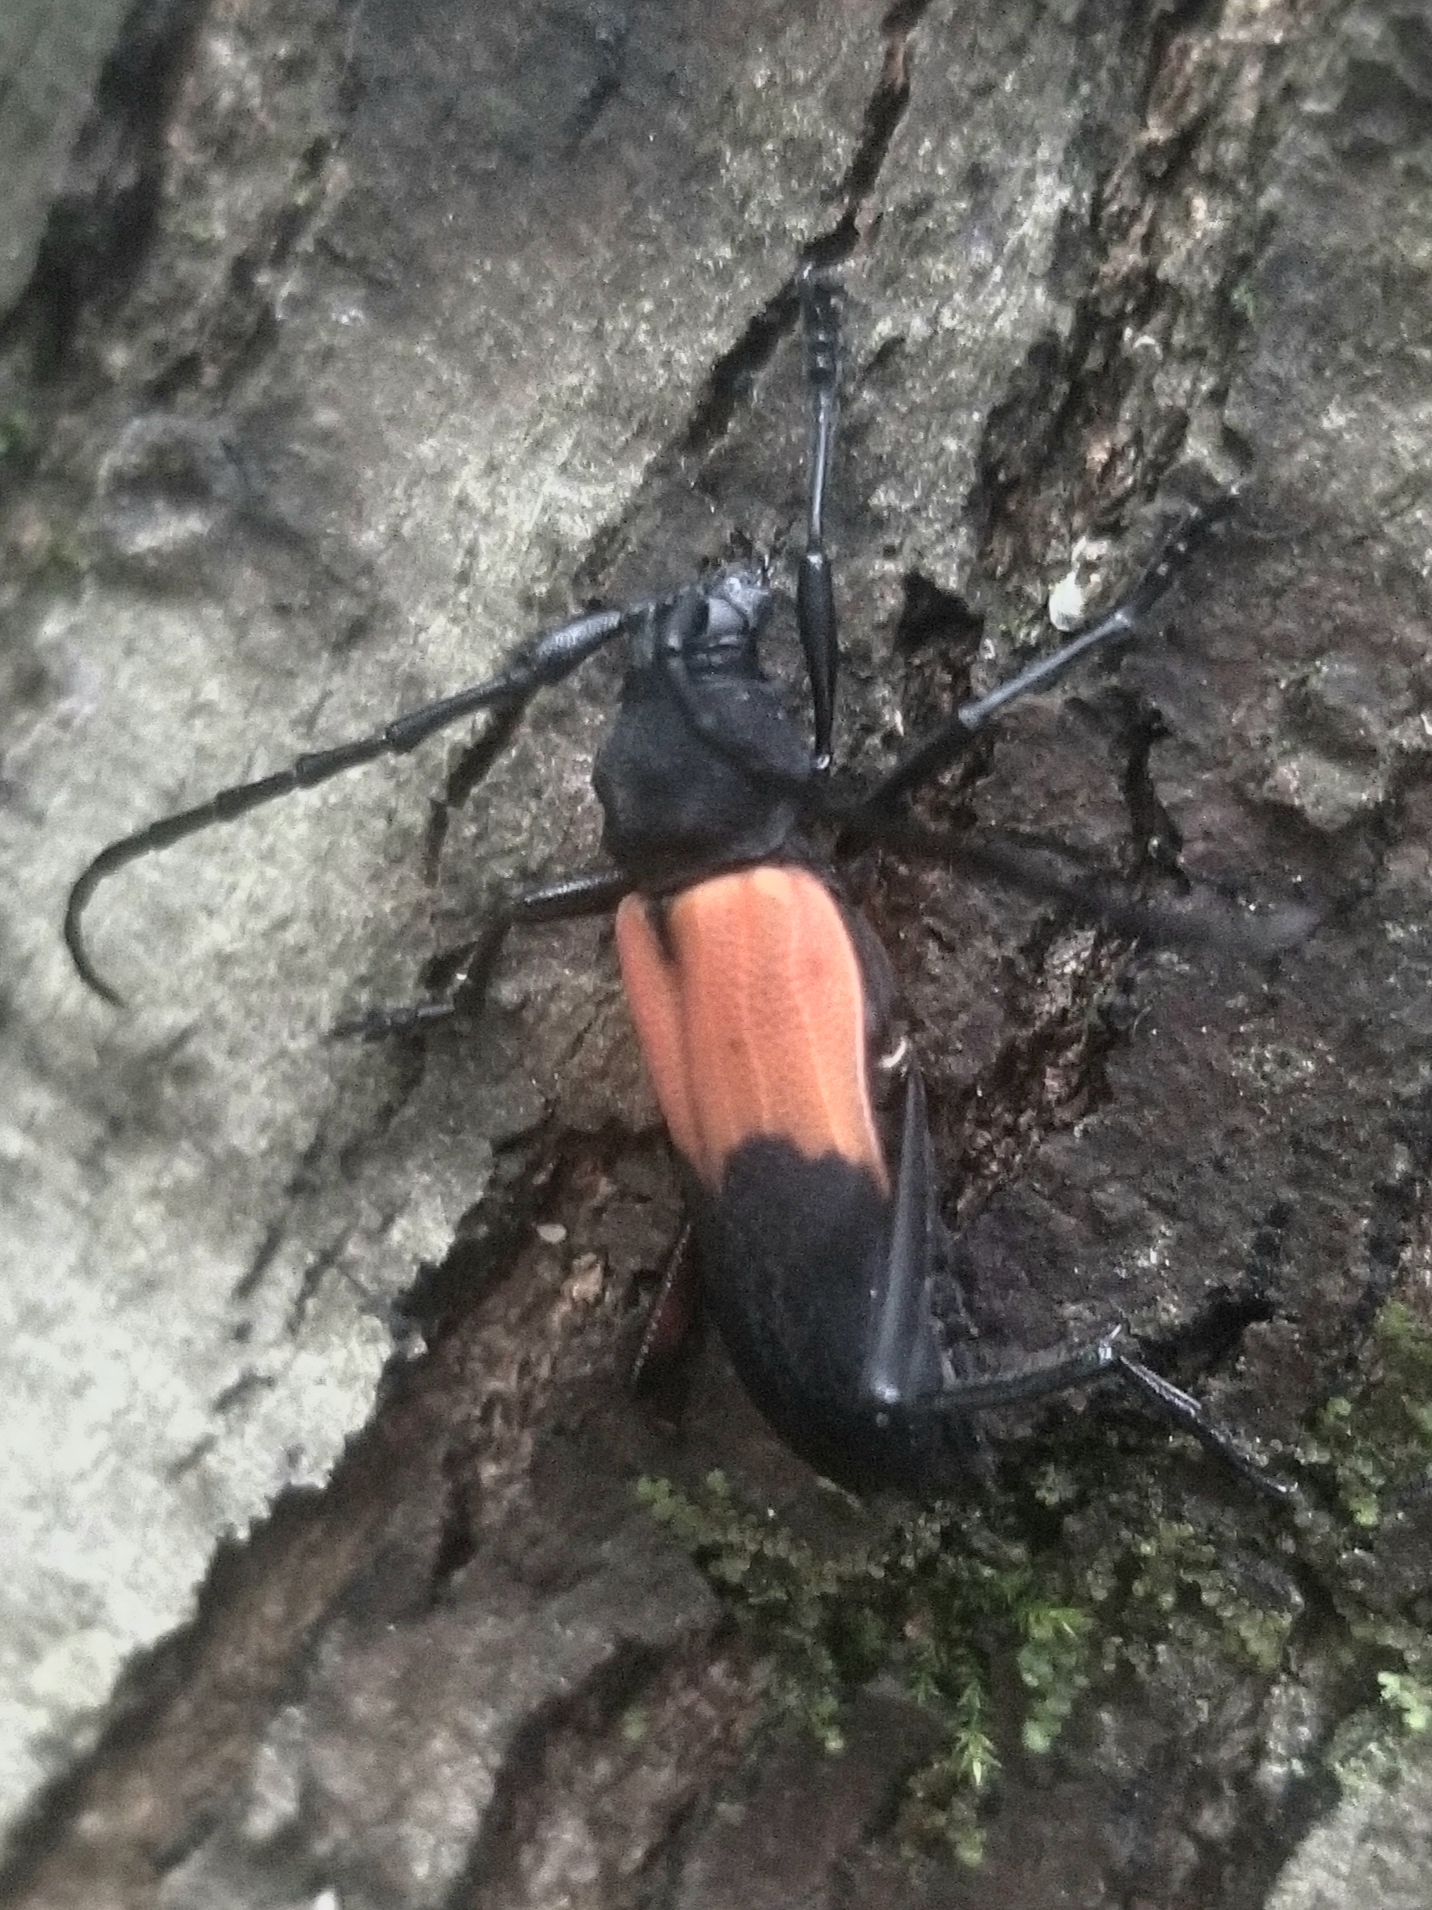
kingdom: Animalia
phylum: Arthropoda
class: Insecta
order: Coleoptera
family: Cerambycidae
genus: Purpuricenus
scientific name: Purpuricenus paraxillaris
